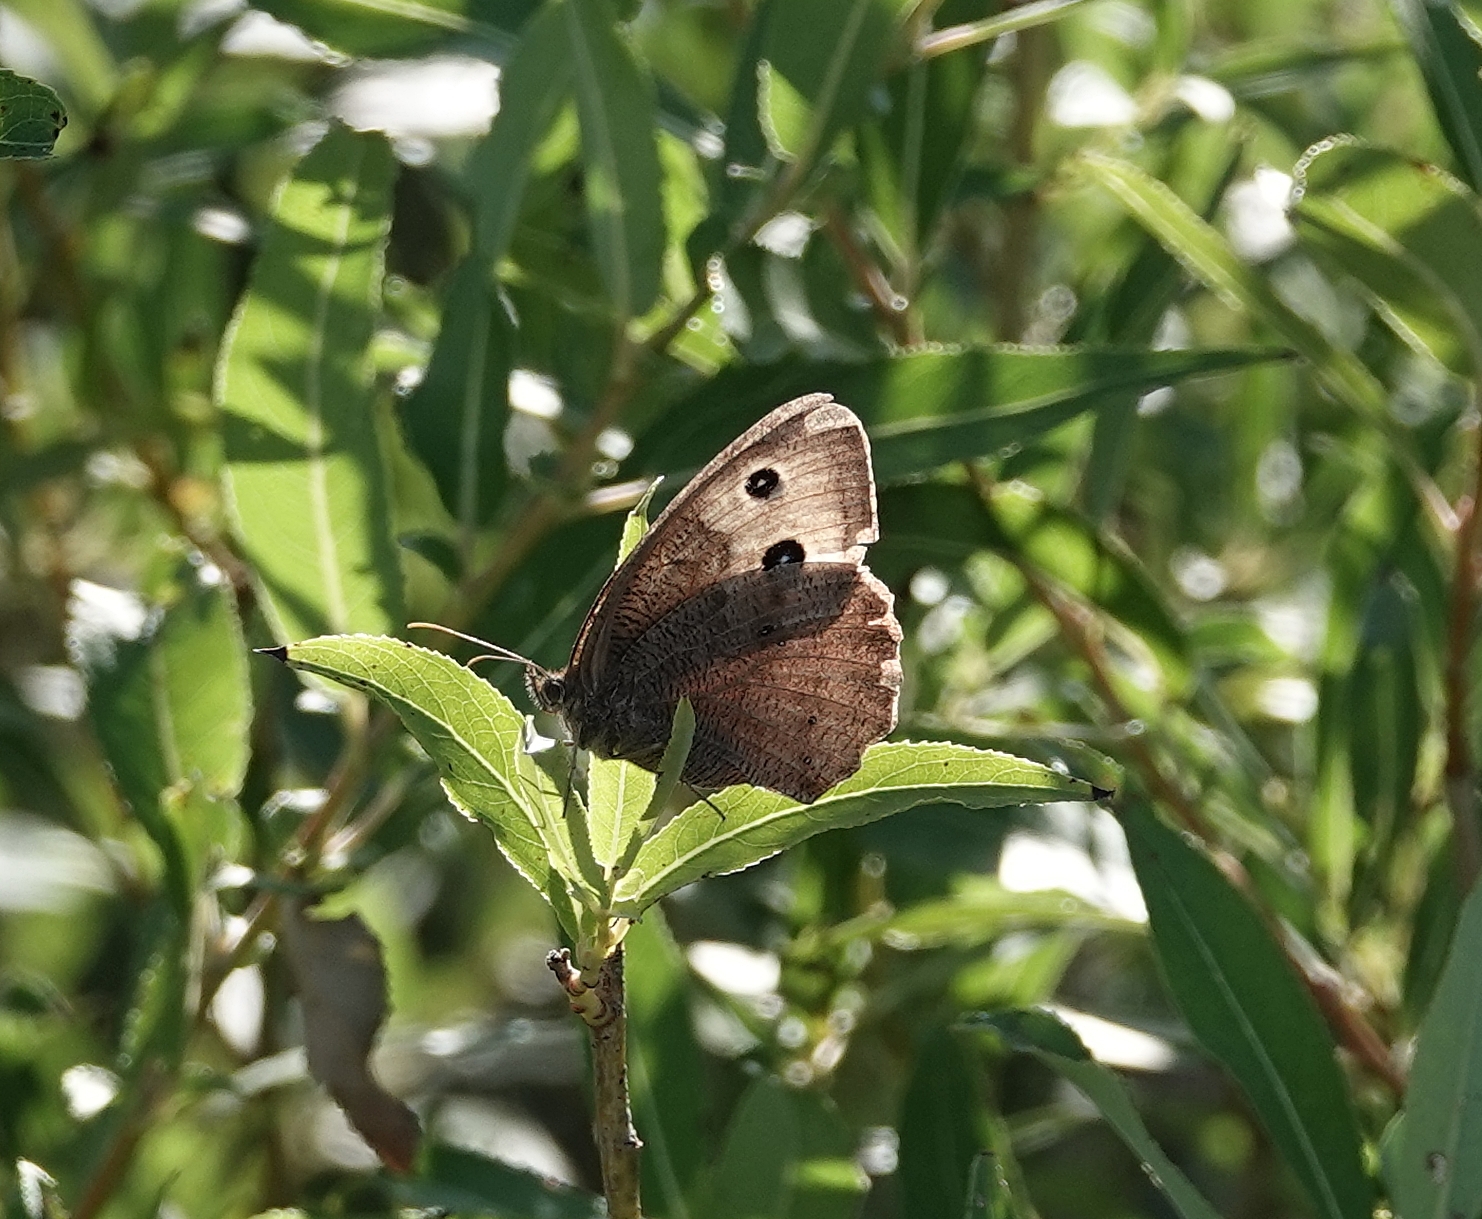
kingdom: Animalia
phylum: Arthropoda
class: Insecta
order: Lepidoptera
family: Nymphalidae
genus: Cercyonis
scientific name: Cercyonis pegala
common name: Common wood-nymph
